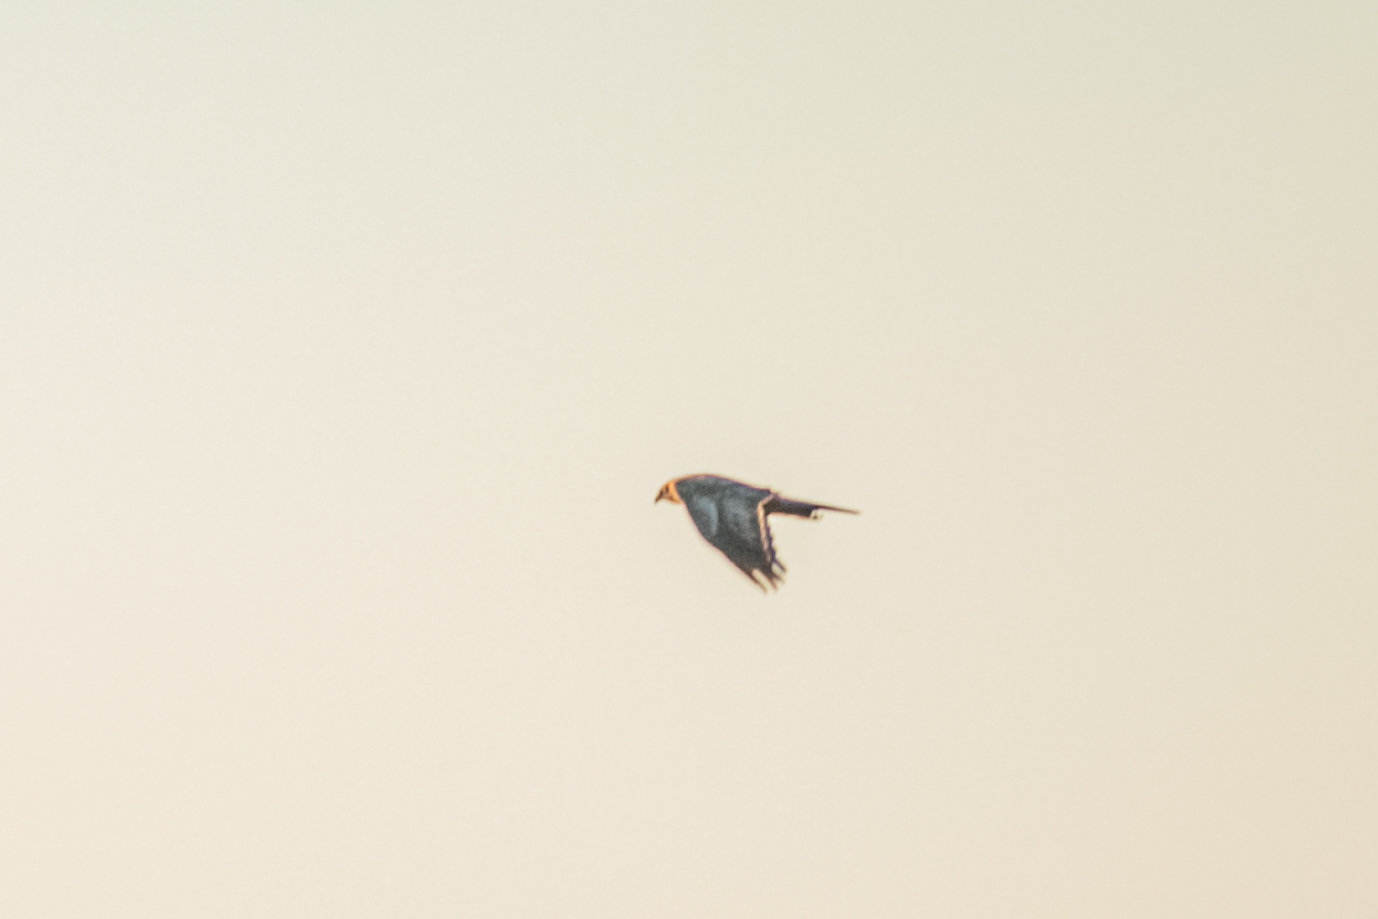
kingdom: Animalia
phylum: Chordata
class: Aves
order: Accipitriformes
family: Accipitridae
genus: Circus
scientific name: Circus aeruginosus
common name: Western marsh harrier
